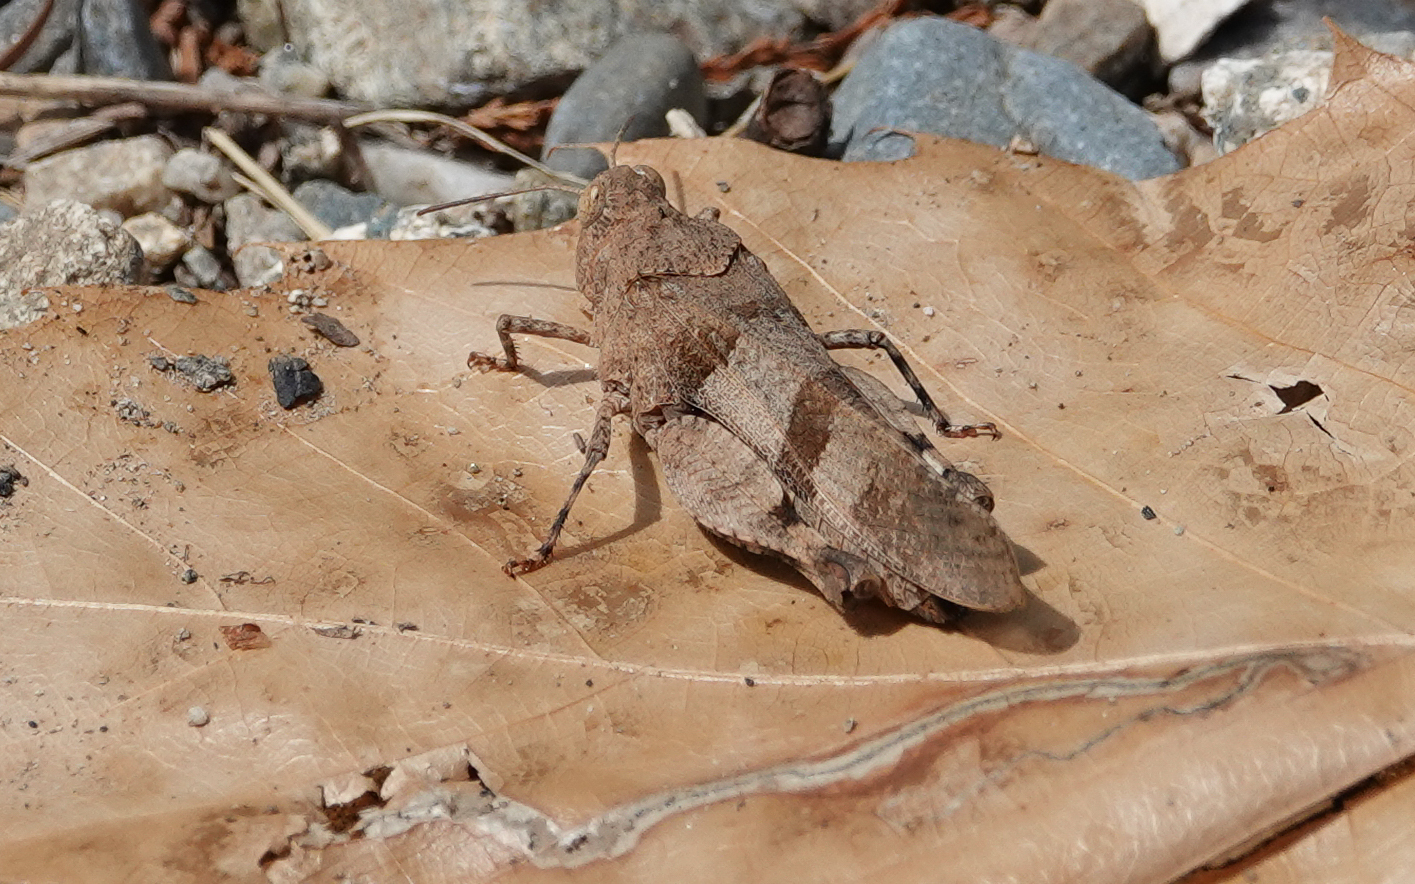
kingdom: Animalia
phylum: Arthropoda
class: Insecta
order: Orthoptera
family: Acrididae
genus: Oedipoda
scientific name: Oedipoda caerulescens
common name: Blue-winged grasshopper
